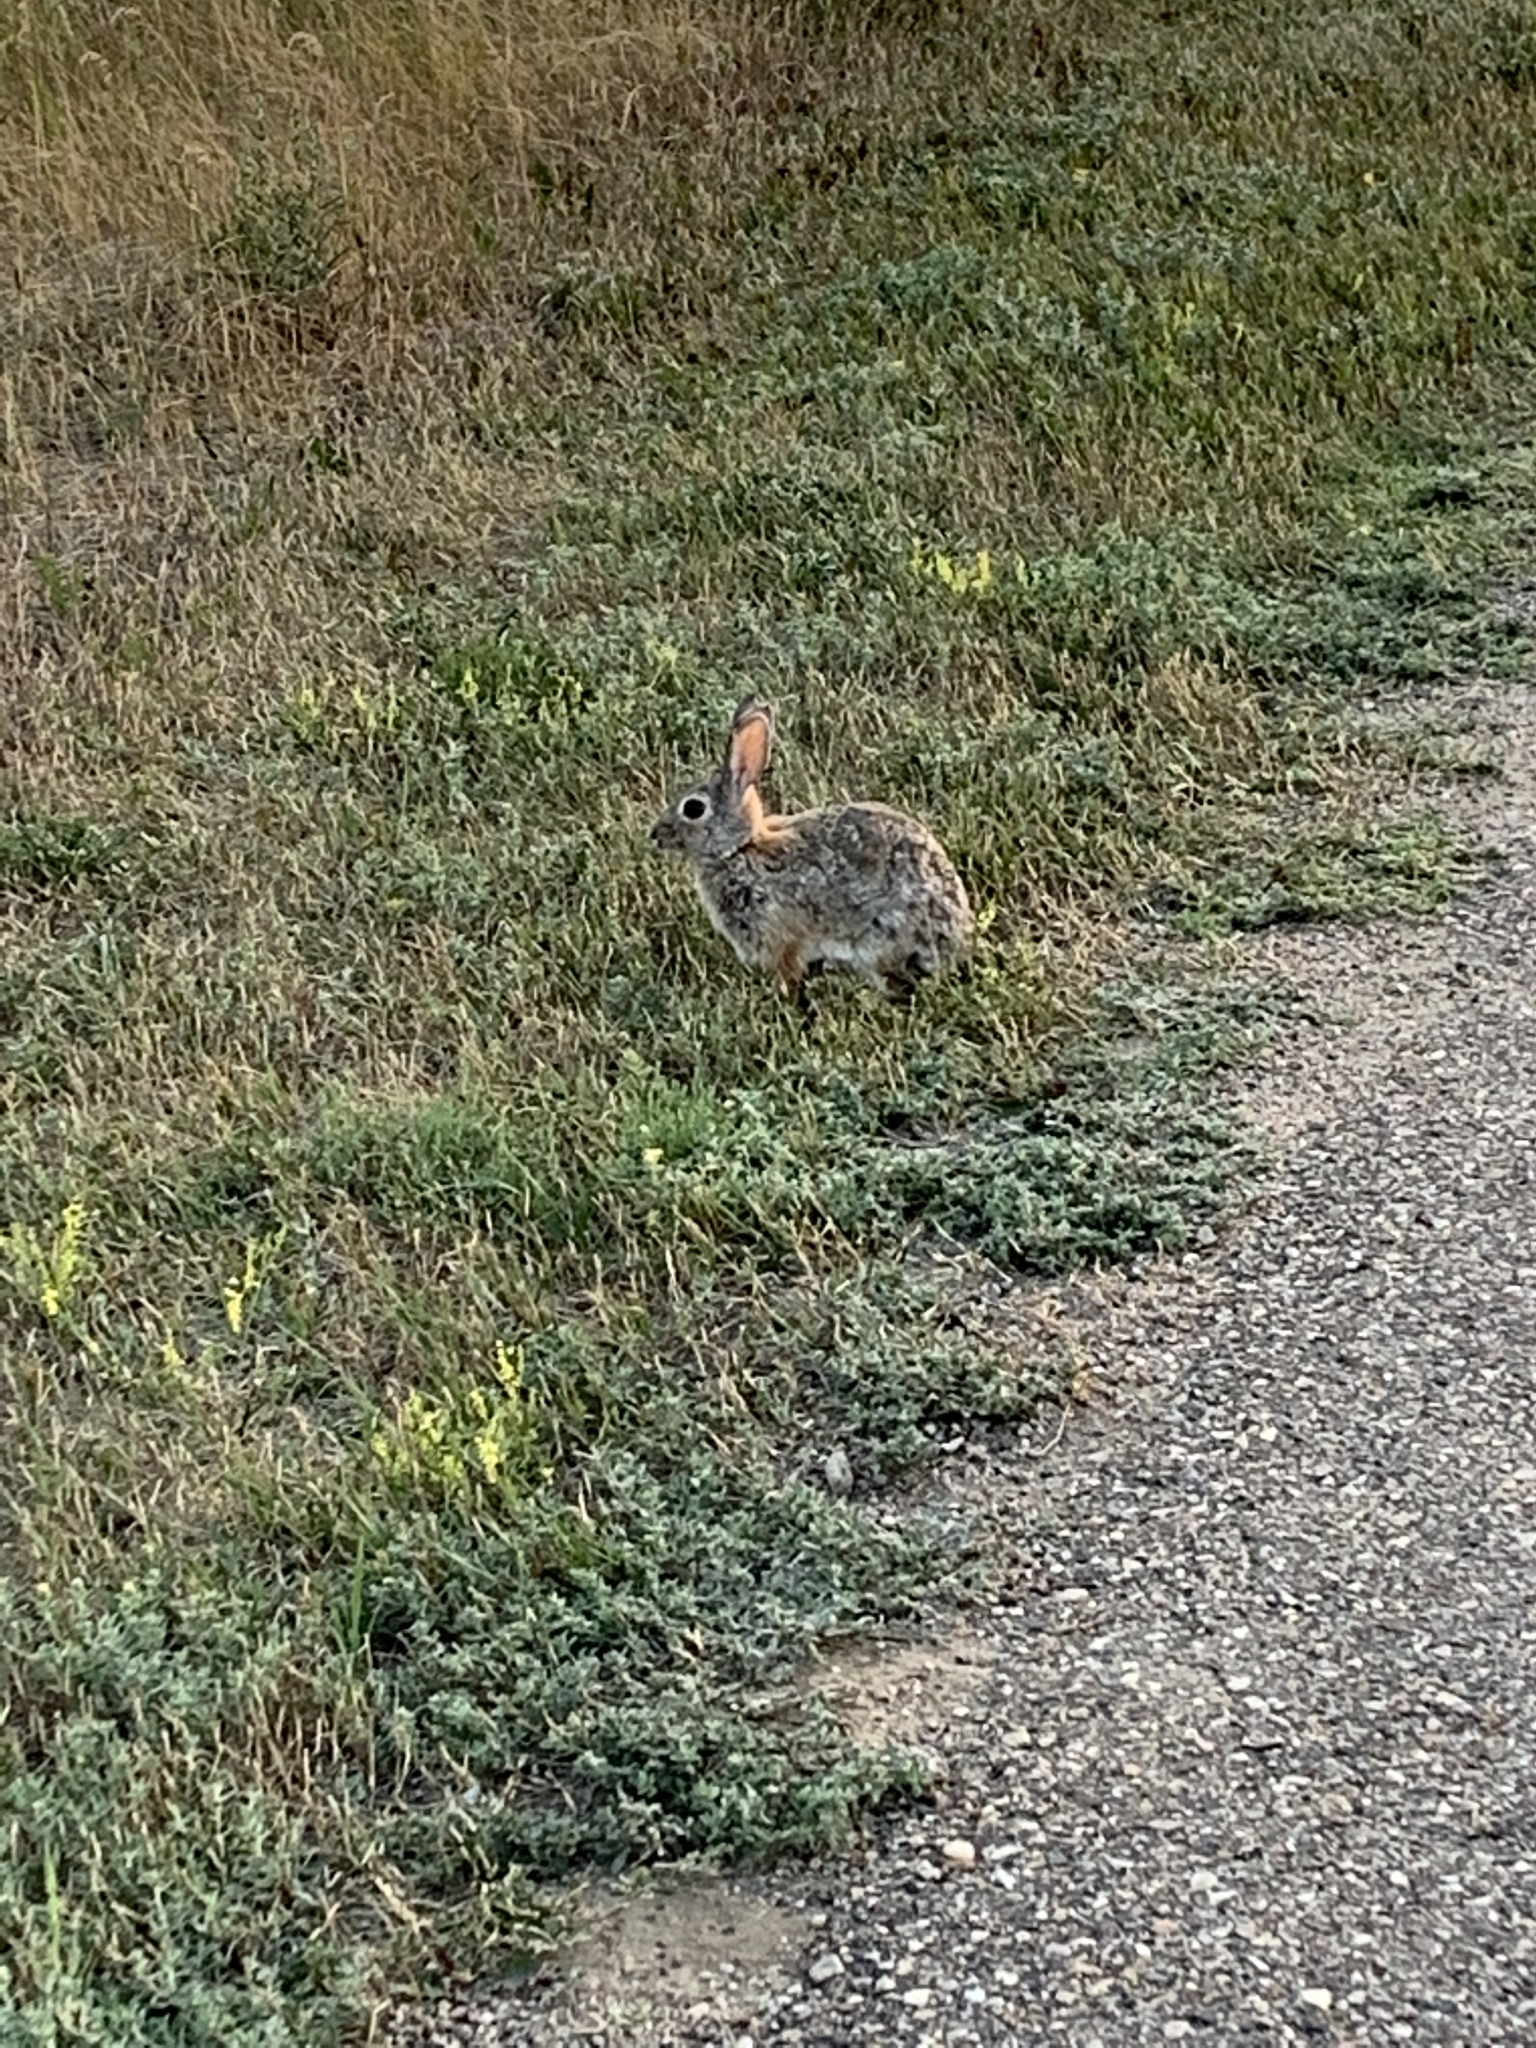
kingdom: Animalia
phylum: Chordata
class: Mammalia
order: Lagomorpha
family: Leporidae
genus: Sylvilagus
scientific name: Sylvilagus nuttallii
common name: Mountain cottontail
